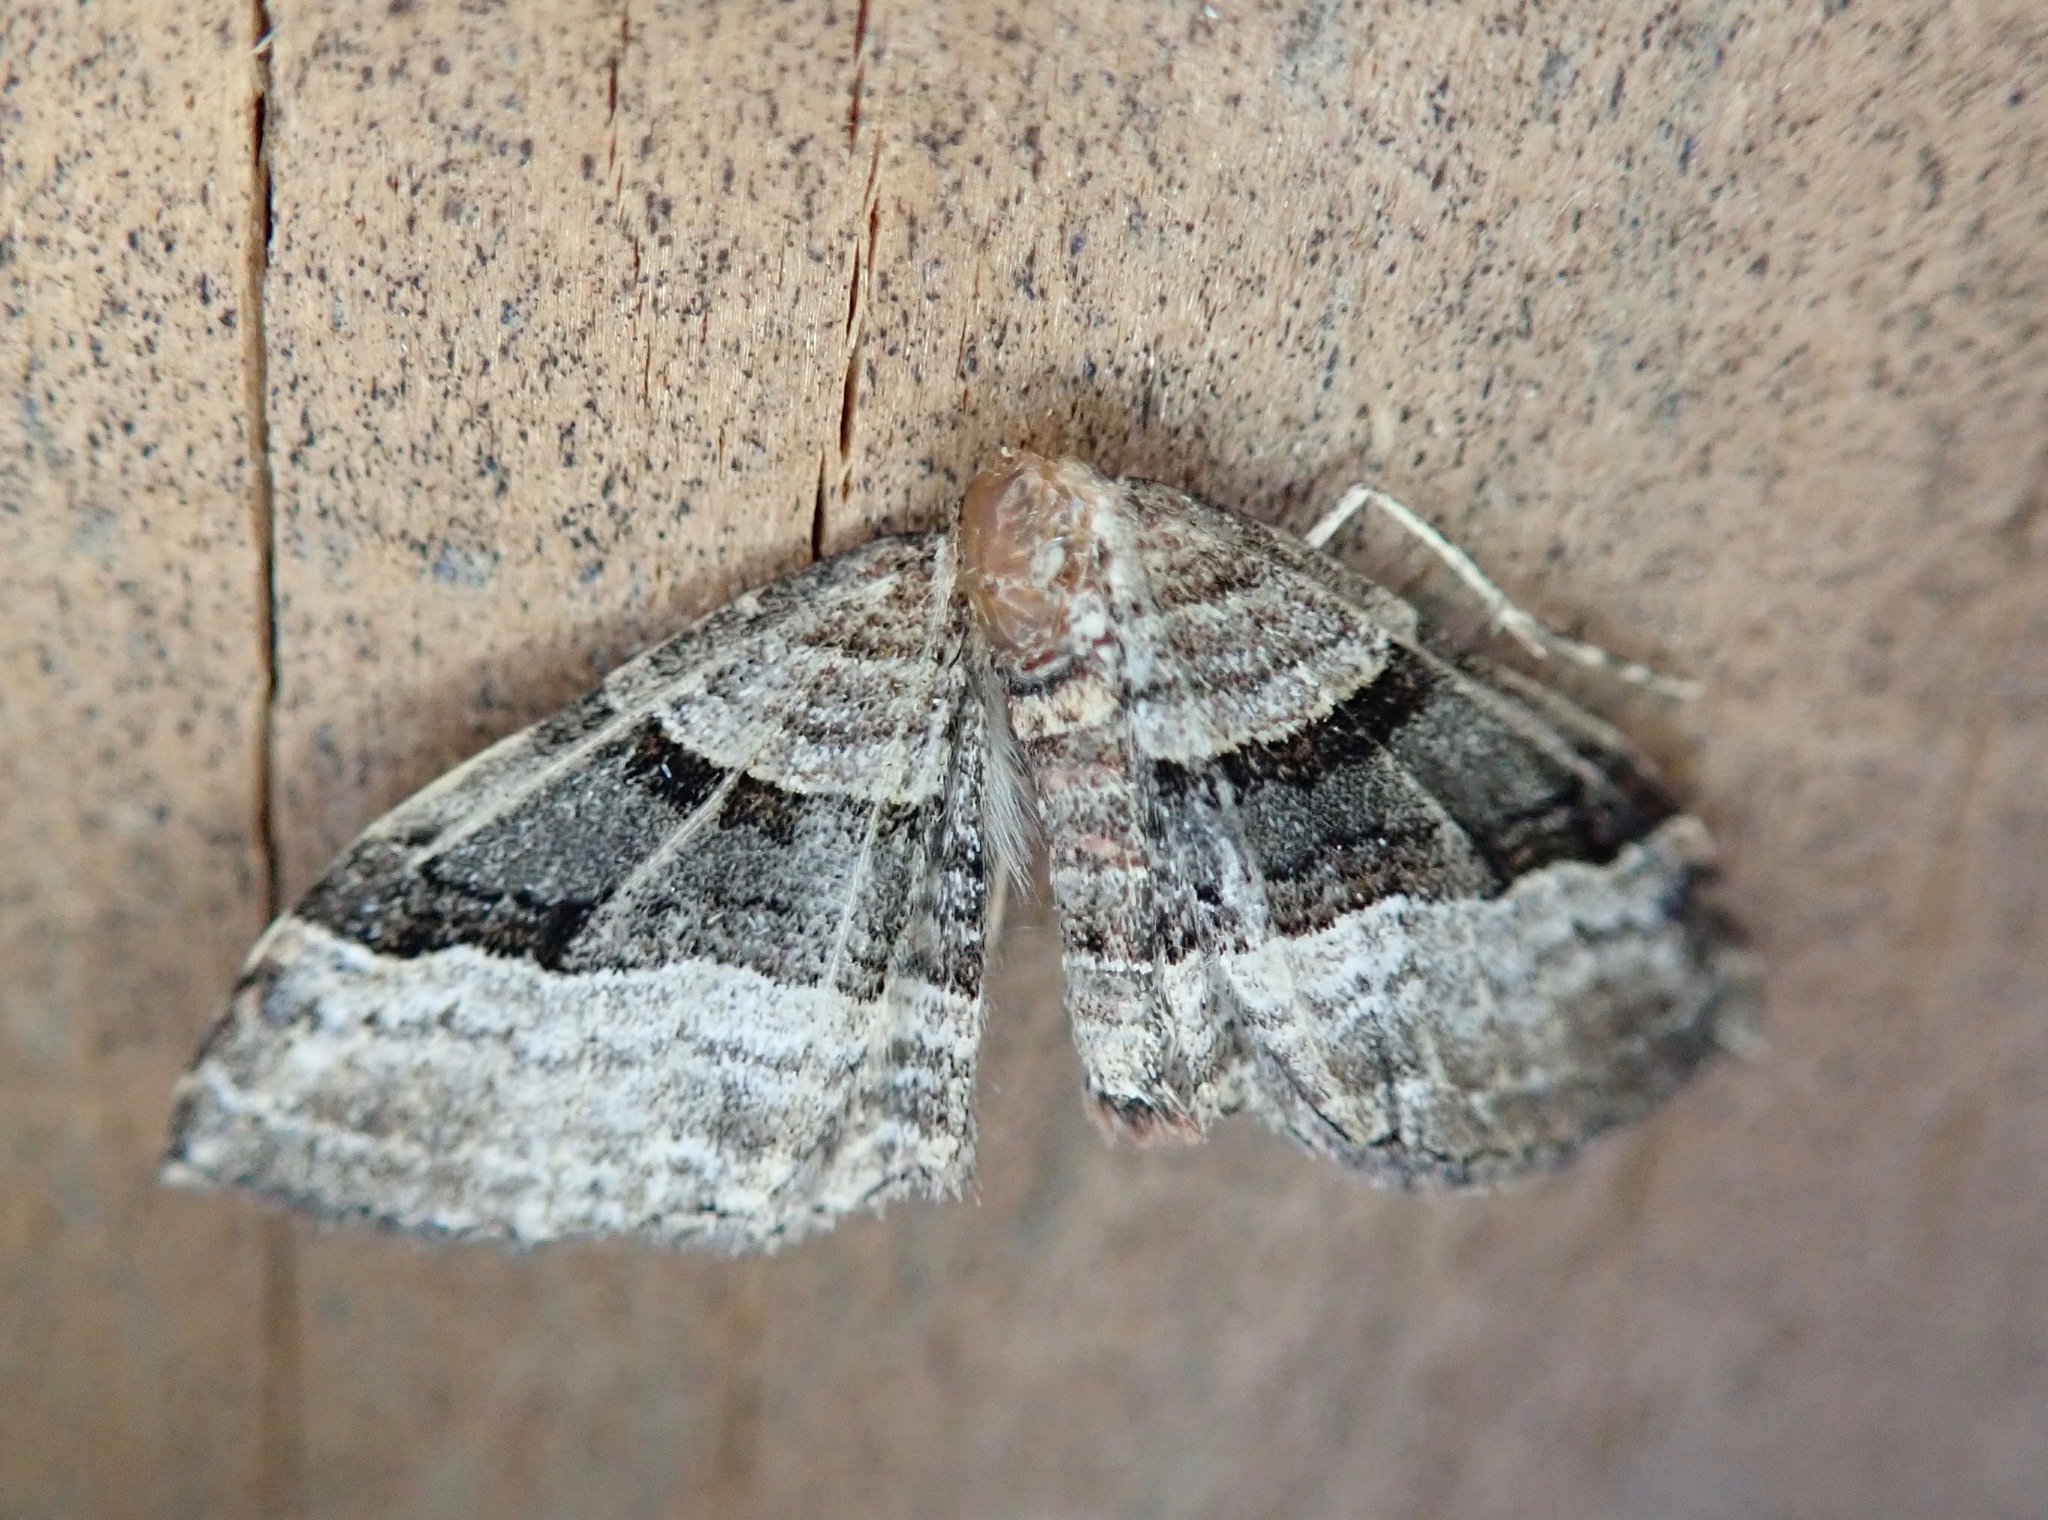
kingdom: Animalia
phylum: Arthropoda
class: Insecta
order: Lepidoptera
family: Geometridae
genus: Epyaxa
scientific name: Epyaxa lucidata
